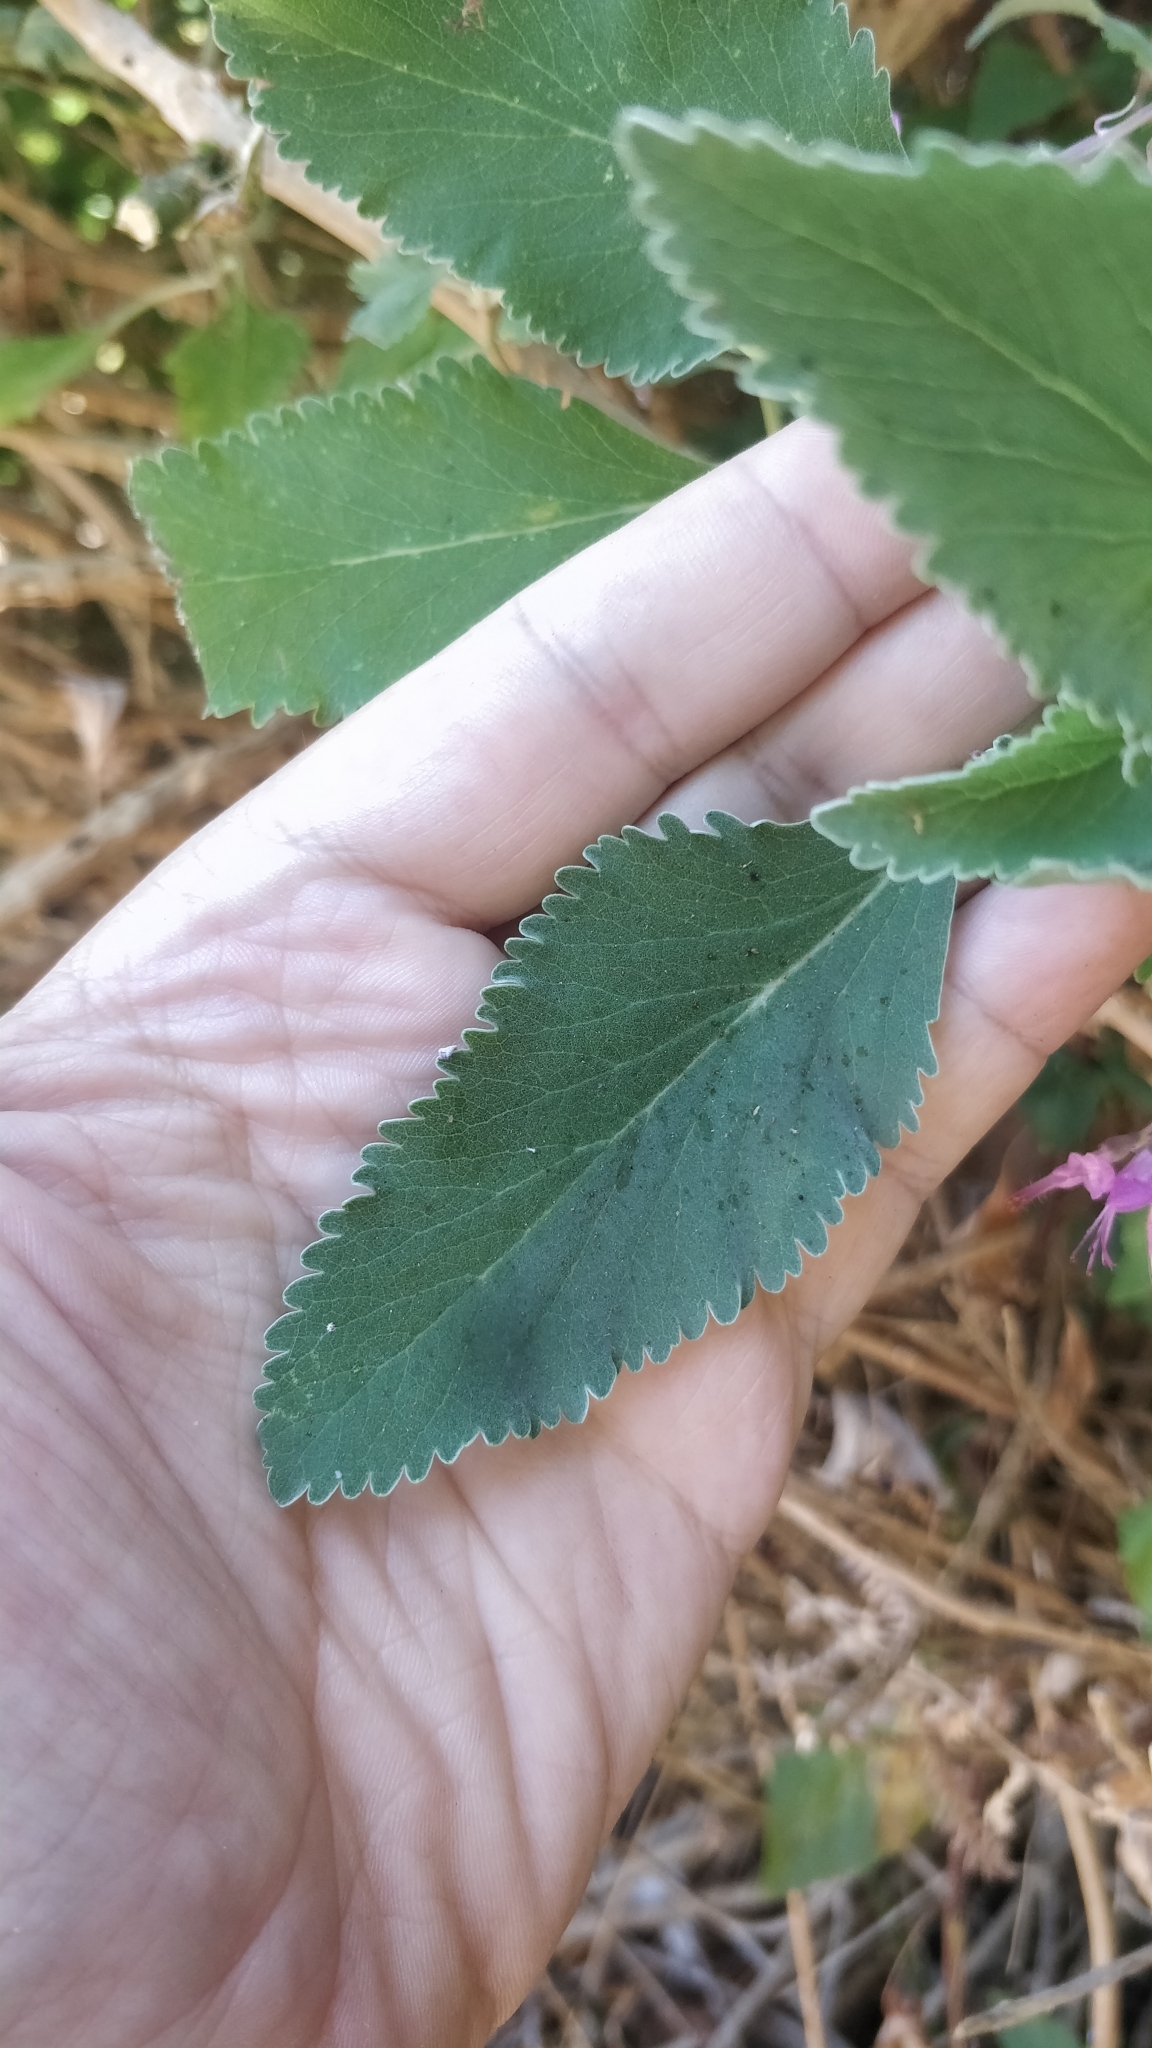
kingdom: Plantae
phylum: Tracheophyta
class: Magnoliopsida
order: Lamiales
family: Lamiaceae
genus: Teucrium
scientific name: Teucrium betonicum
